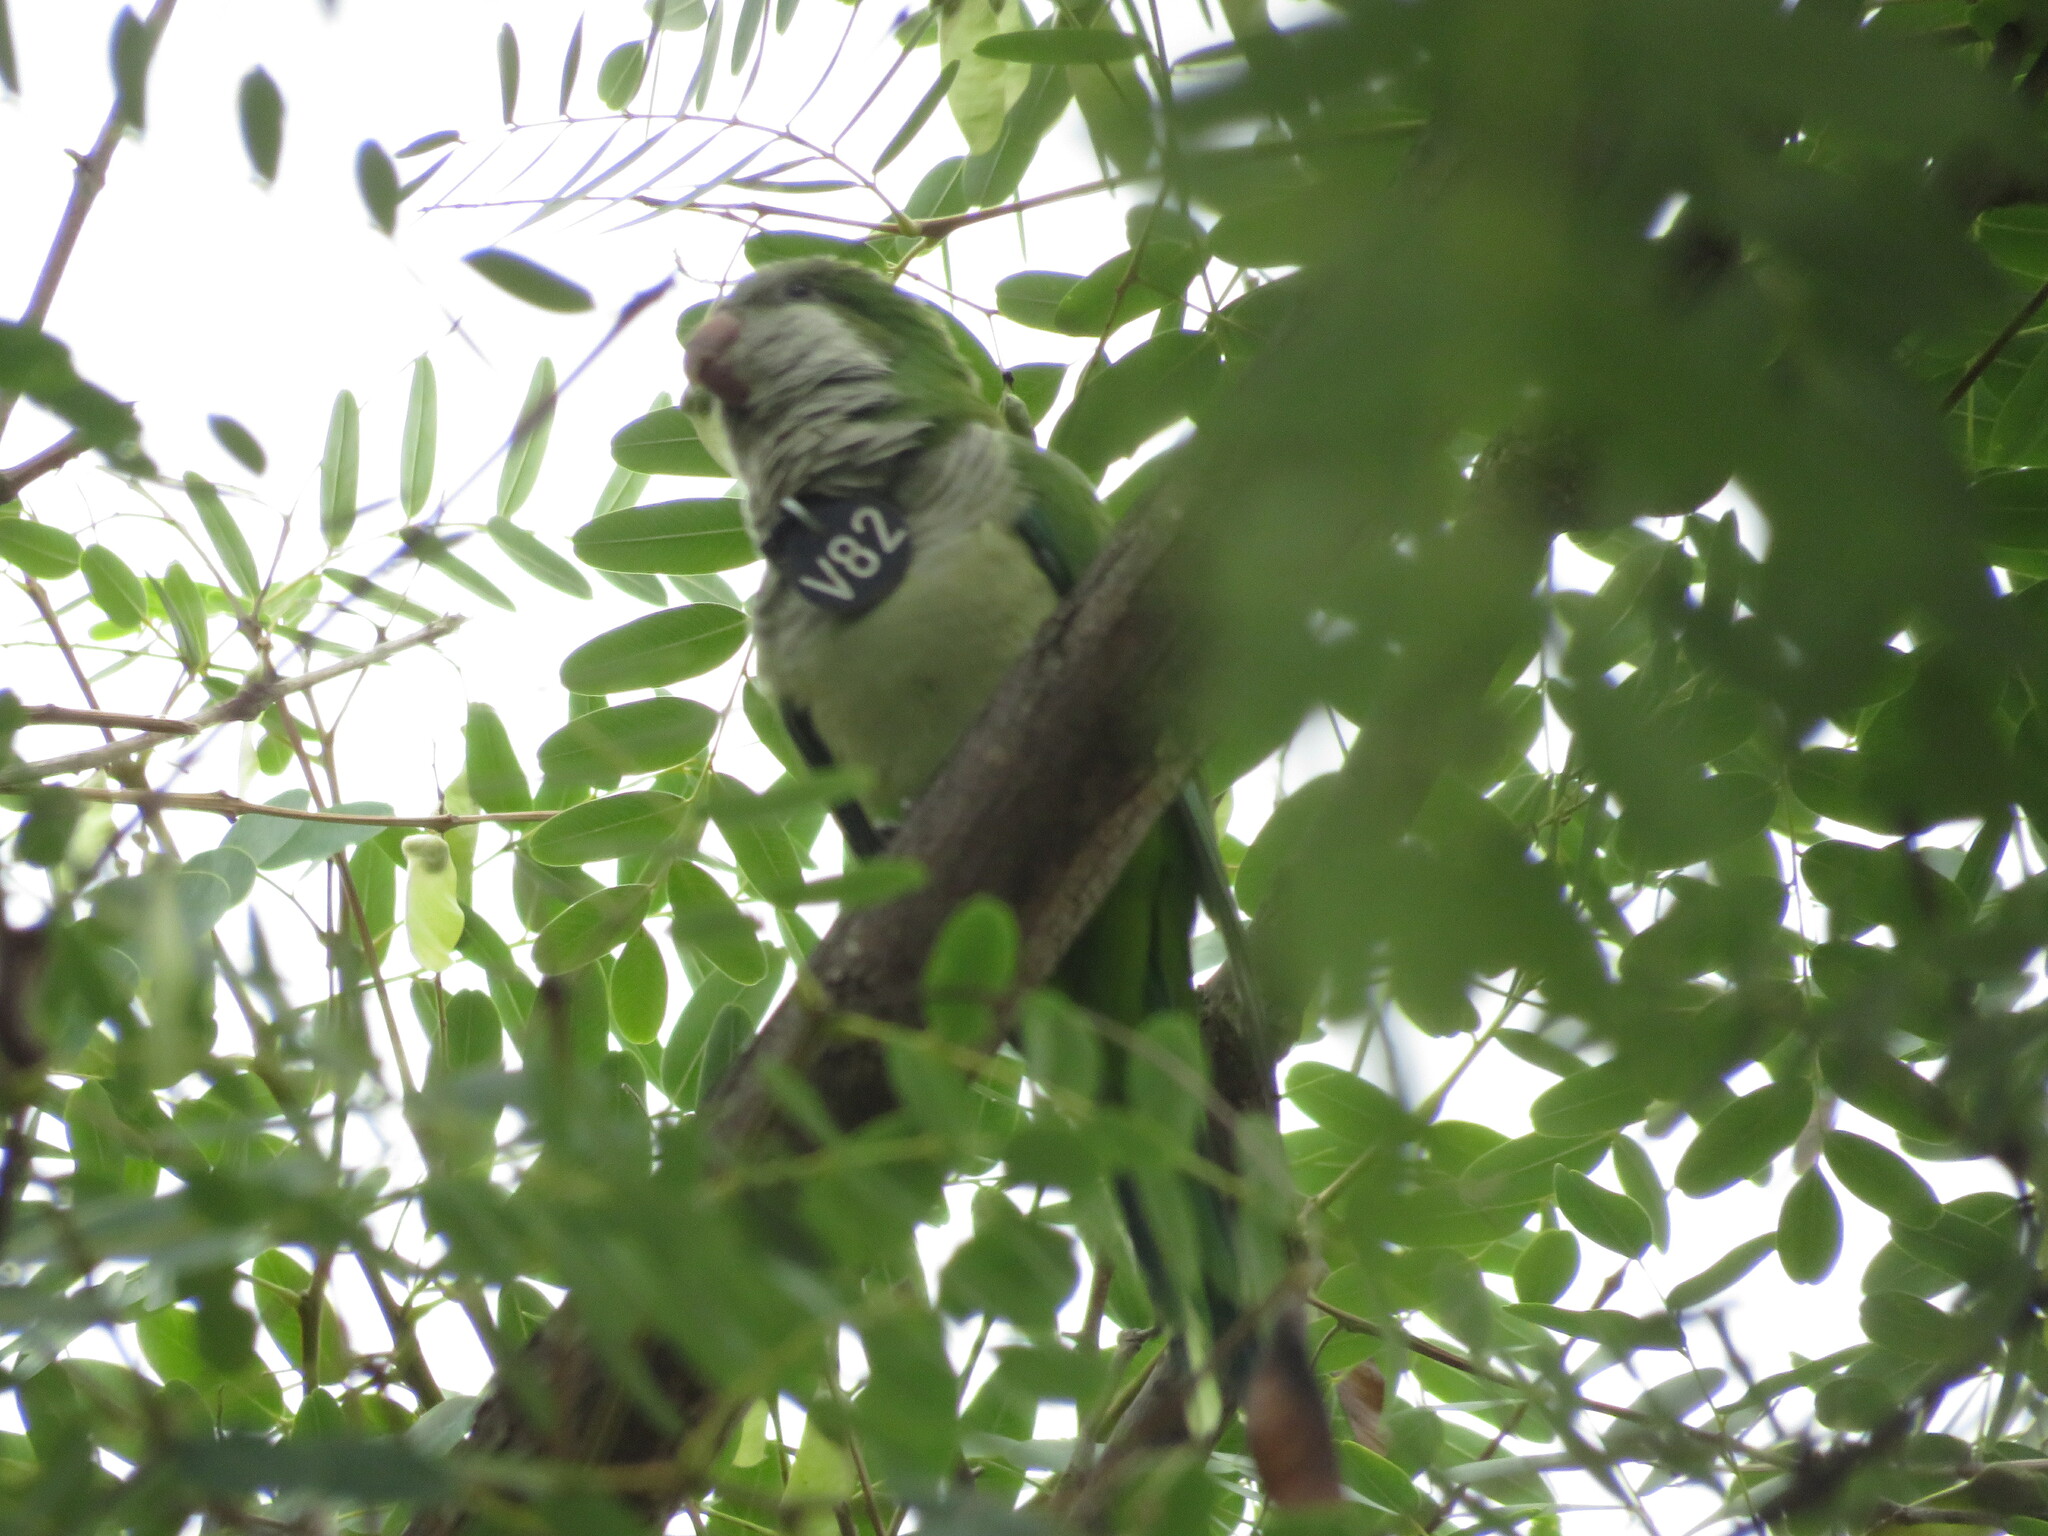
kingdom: Animalia
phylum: Chordata
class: Aves
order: Psittaciformes
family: Psittacidae
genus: Myiopsitta
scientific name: Myiopsitta monachus
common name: Monk parakeet
